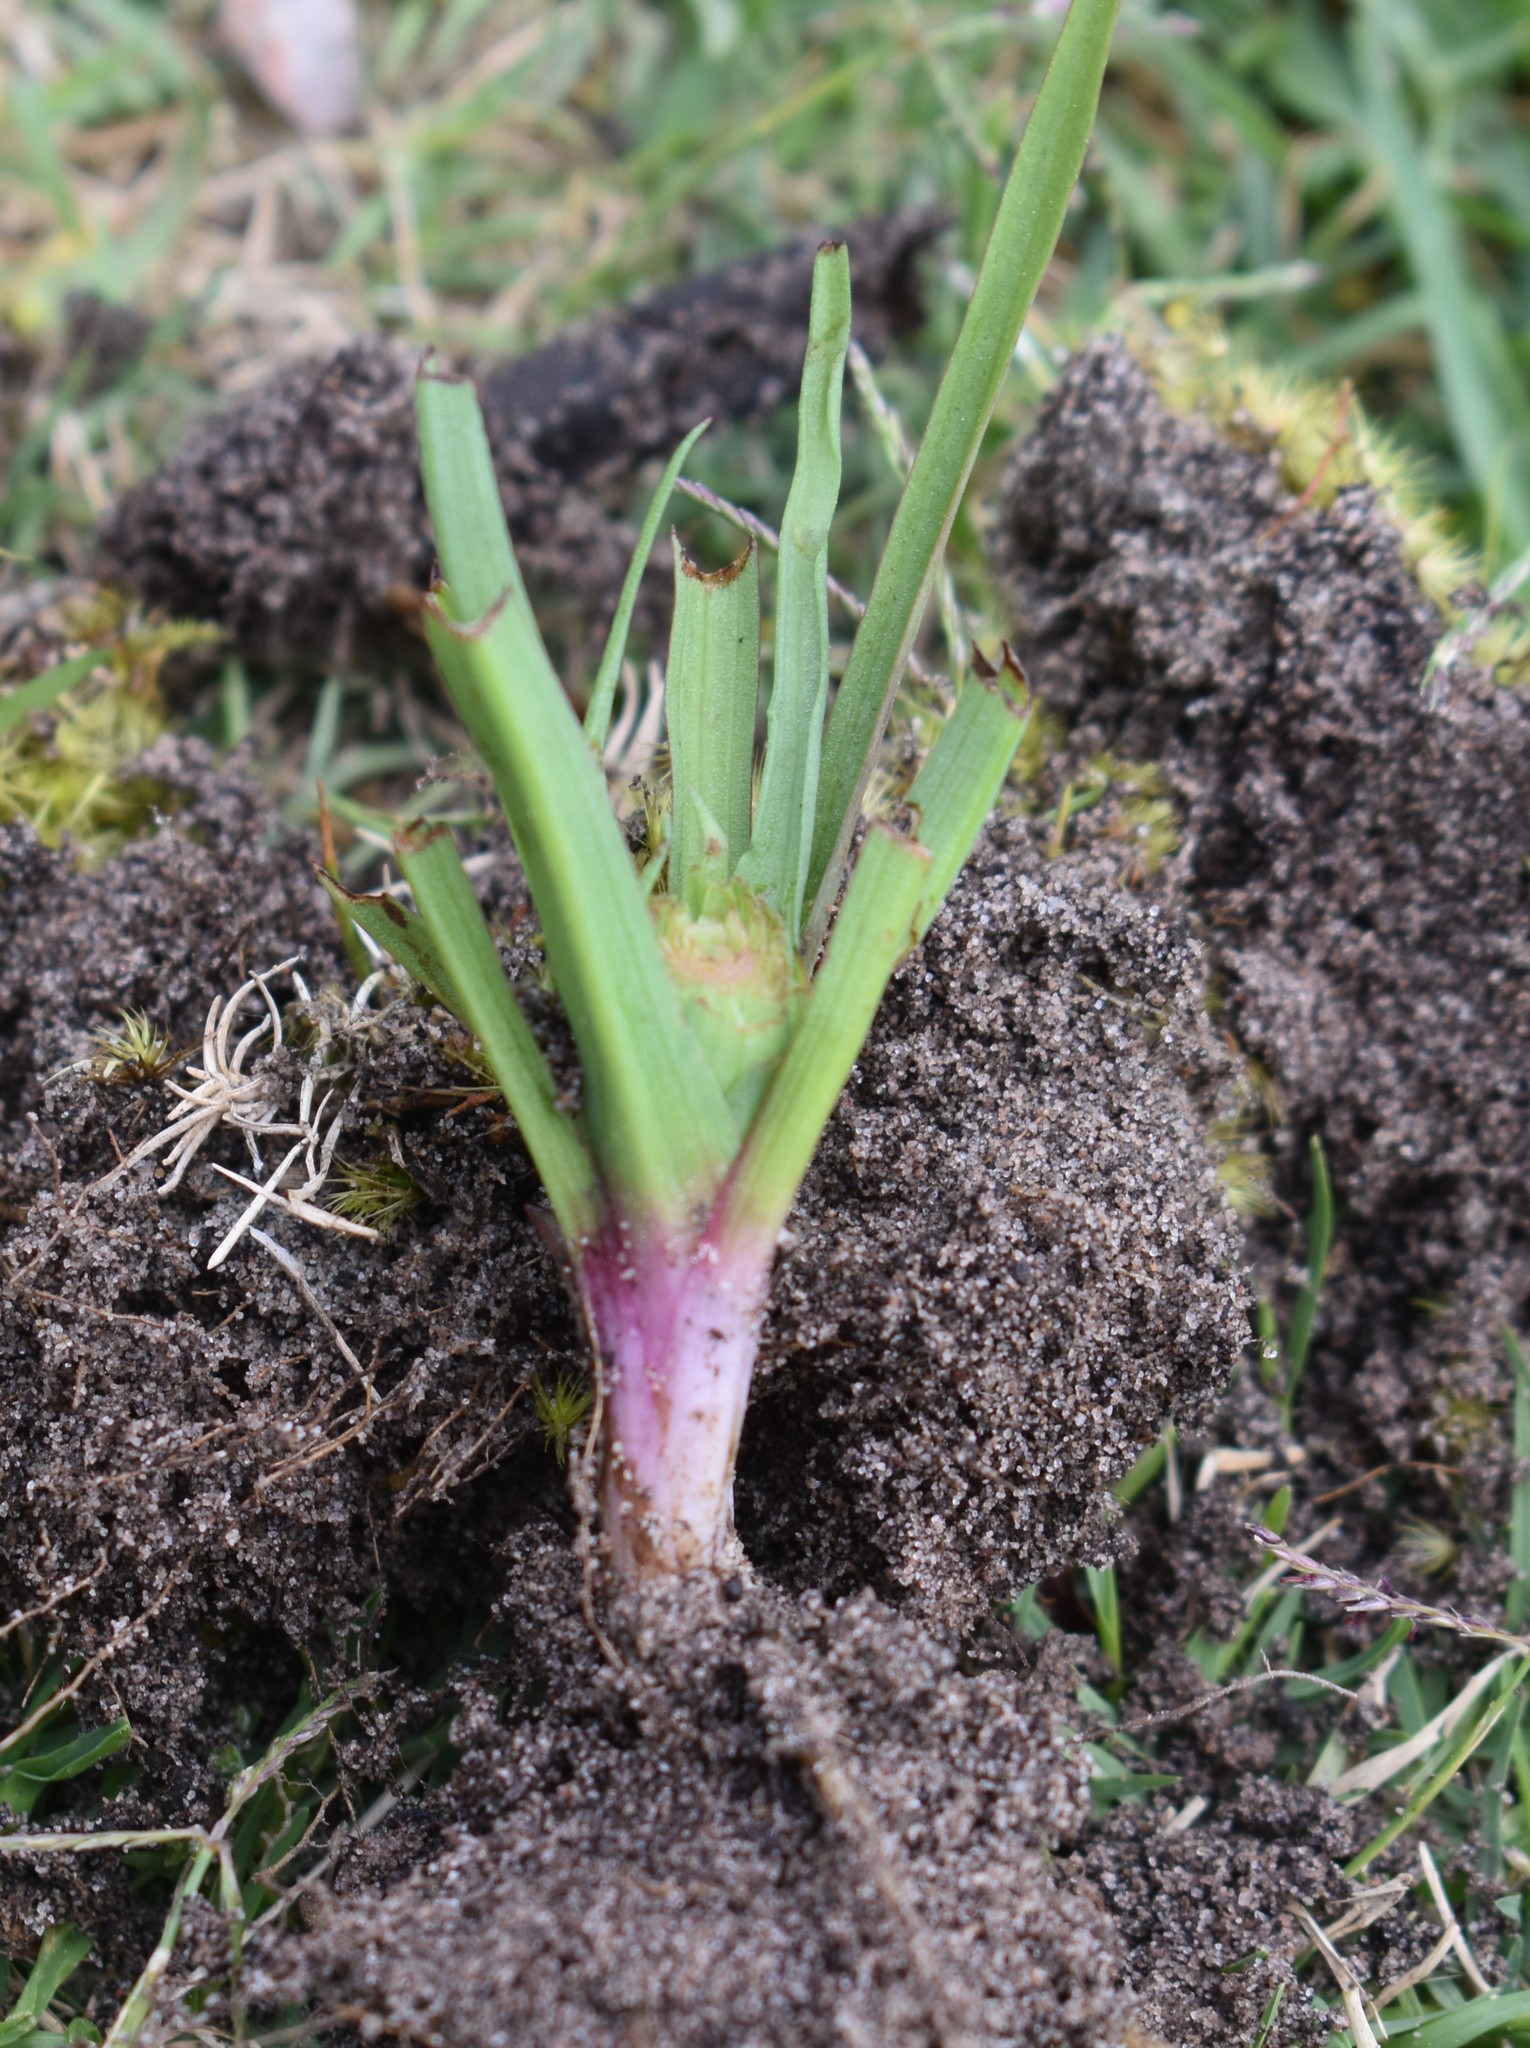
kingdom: Plantae
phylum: Tracheophyta
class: Liliopsida
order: Asparagales
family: Orchidaceae
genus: Disa
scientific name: Disa bracteata
